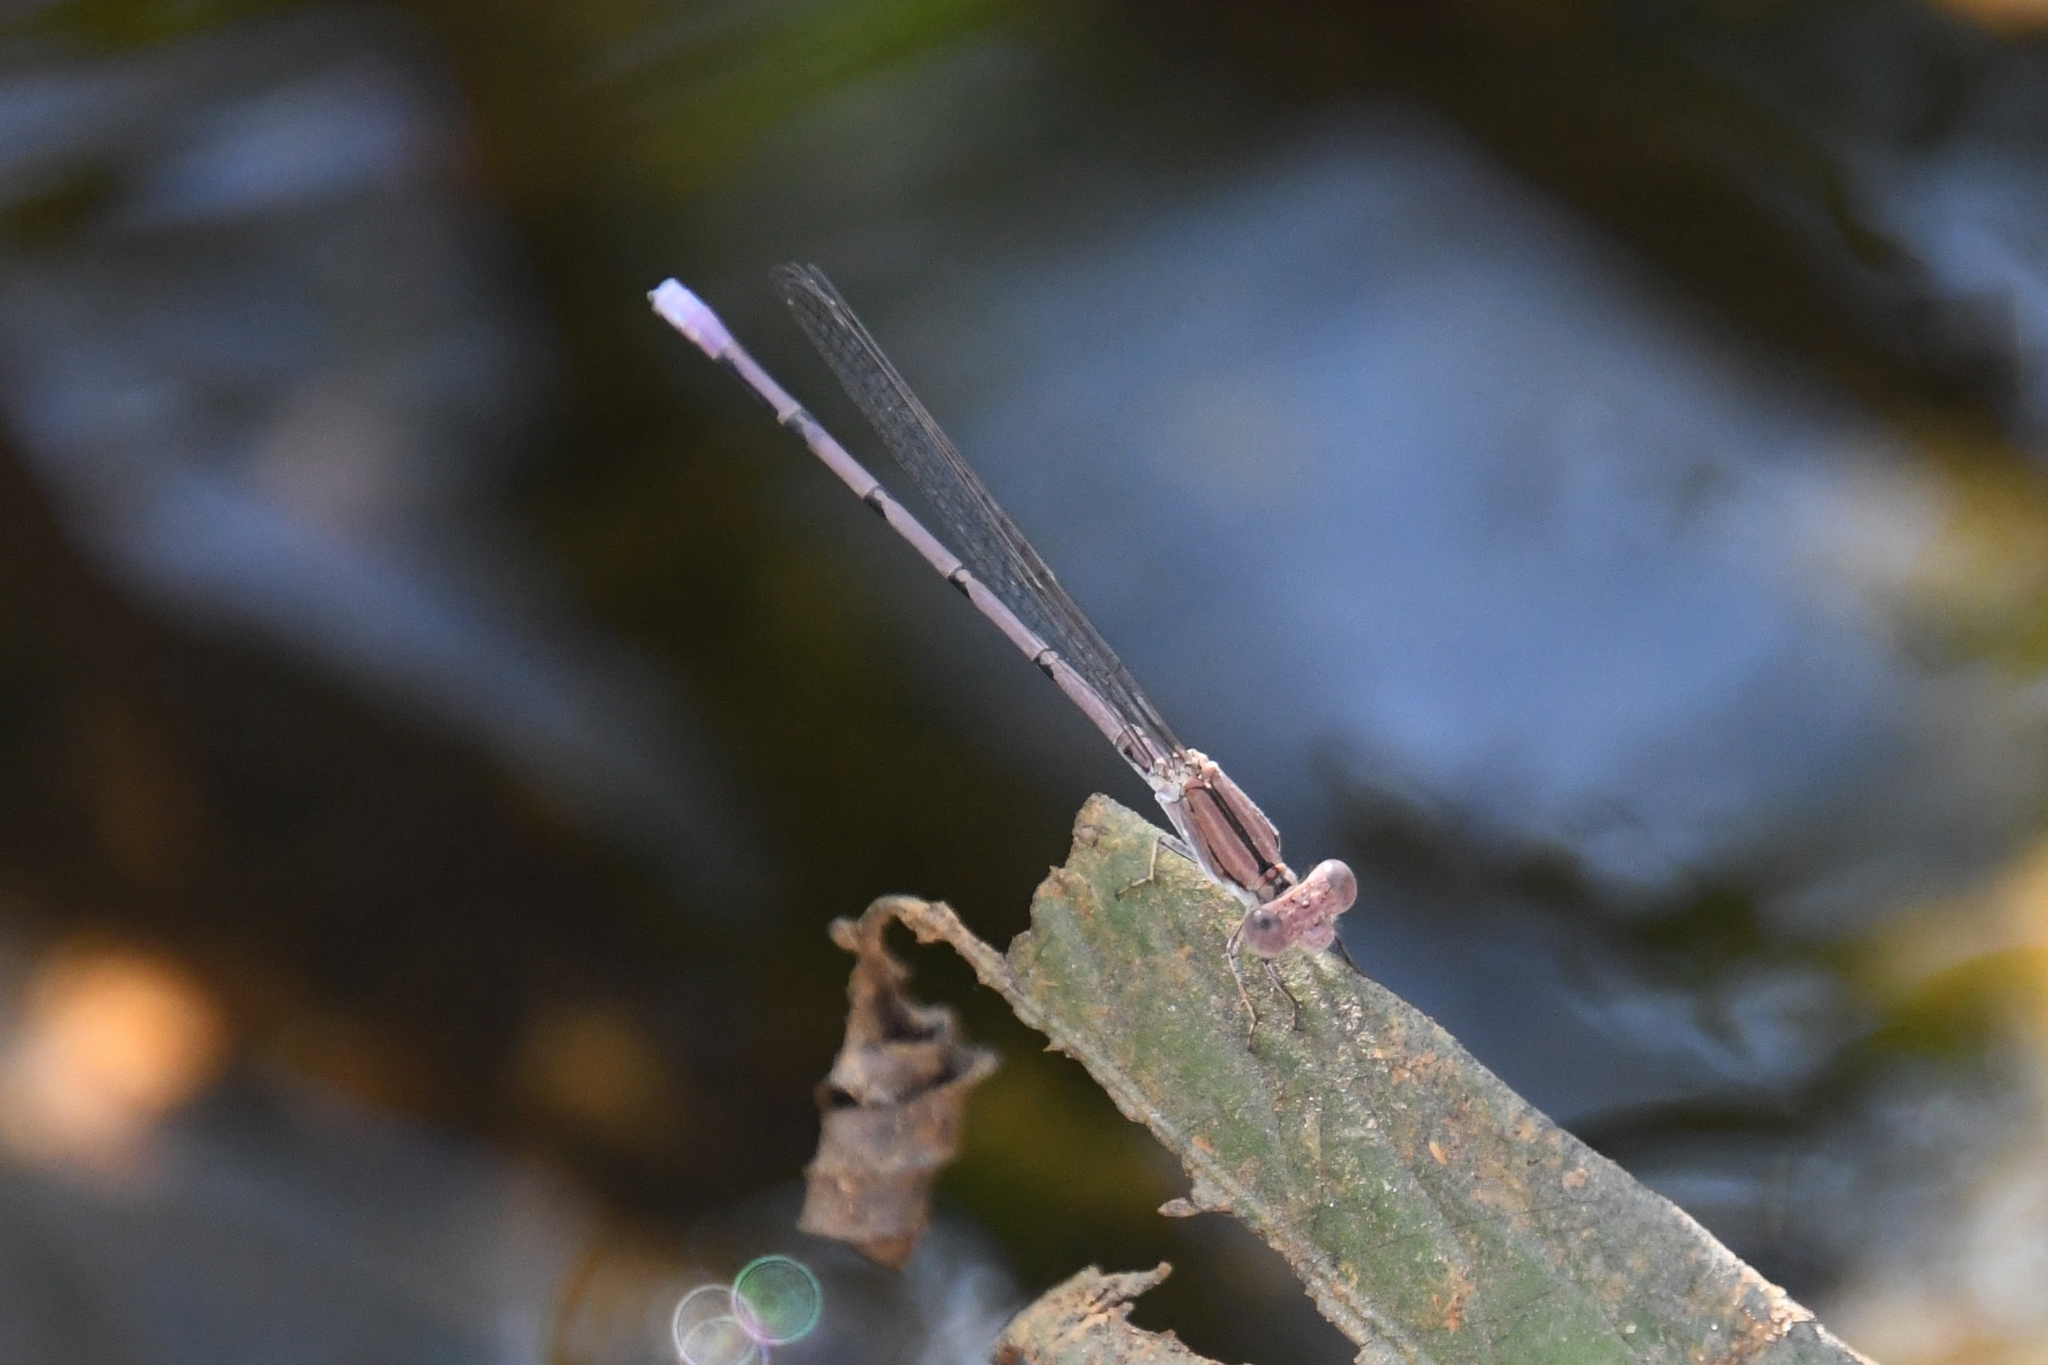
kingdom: Animalia
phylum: Arthropoda
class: Insecta
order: Odonata
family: Coenagrionidae
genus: Argia
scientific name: Argia pallens
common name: Amethyst dancer
